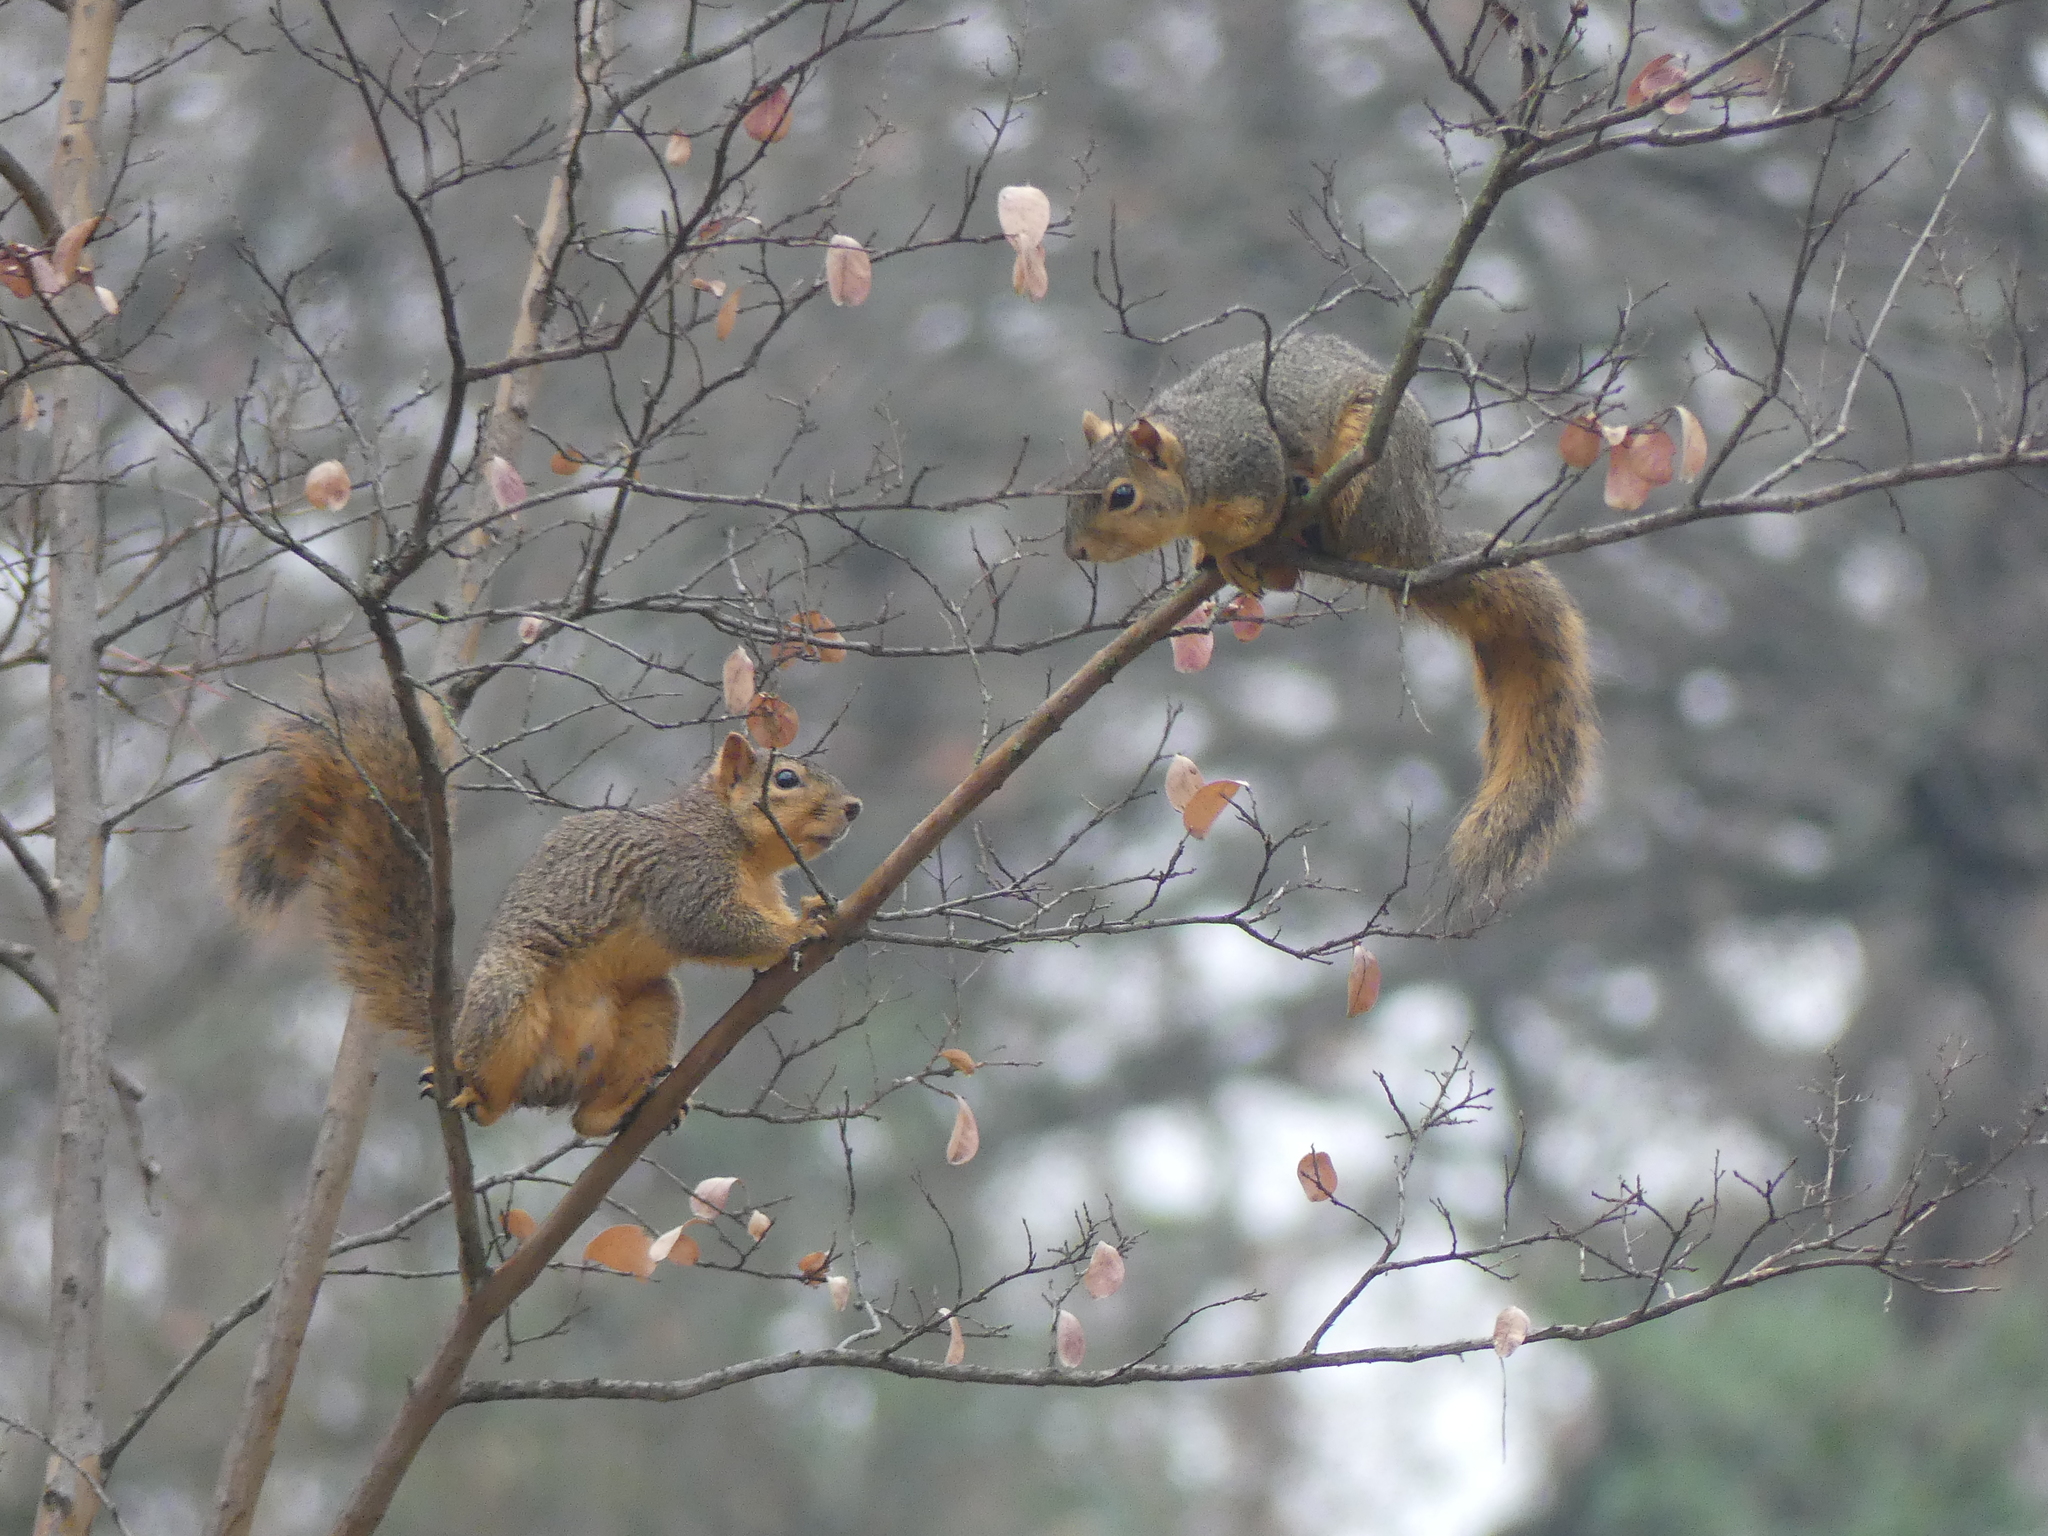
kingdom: Animalia
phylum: Chordata
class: Mammalia
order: Rodentia
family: Sciuridae
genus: Sciurus
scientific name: Sciurus niger
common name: Fox squirrel
